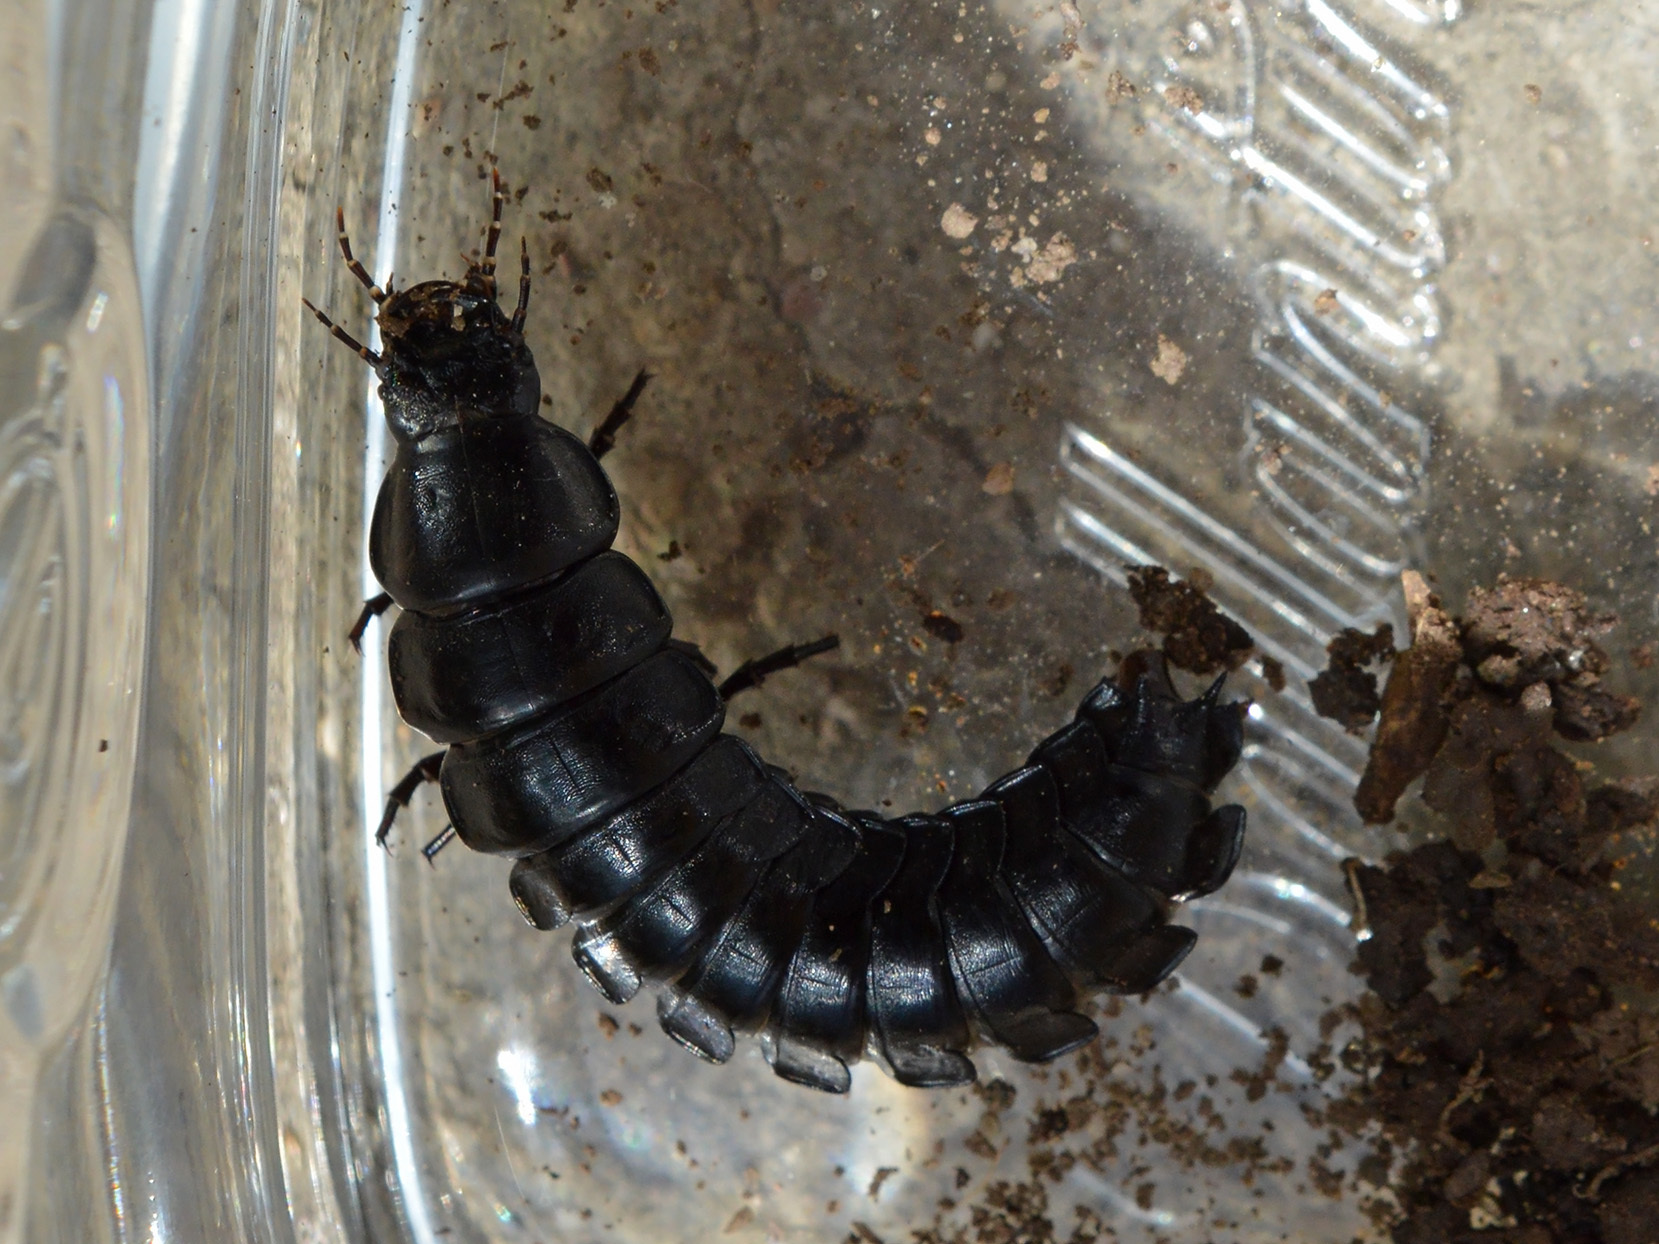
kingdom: Animalia
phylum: Arthropoda
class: Insecta
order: Coleoptera
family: Carabidae
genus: Carabus
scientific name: Carabus
